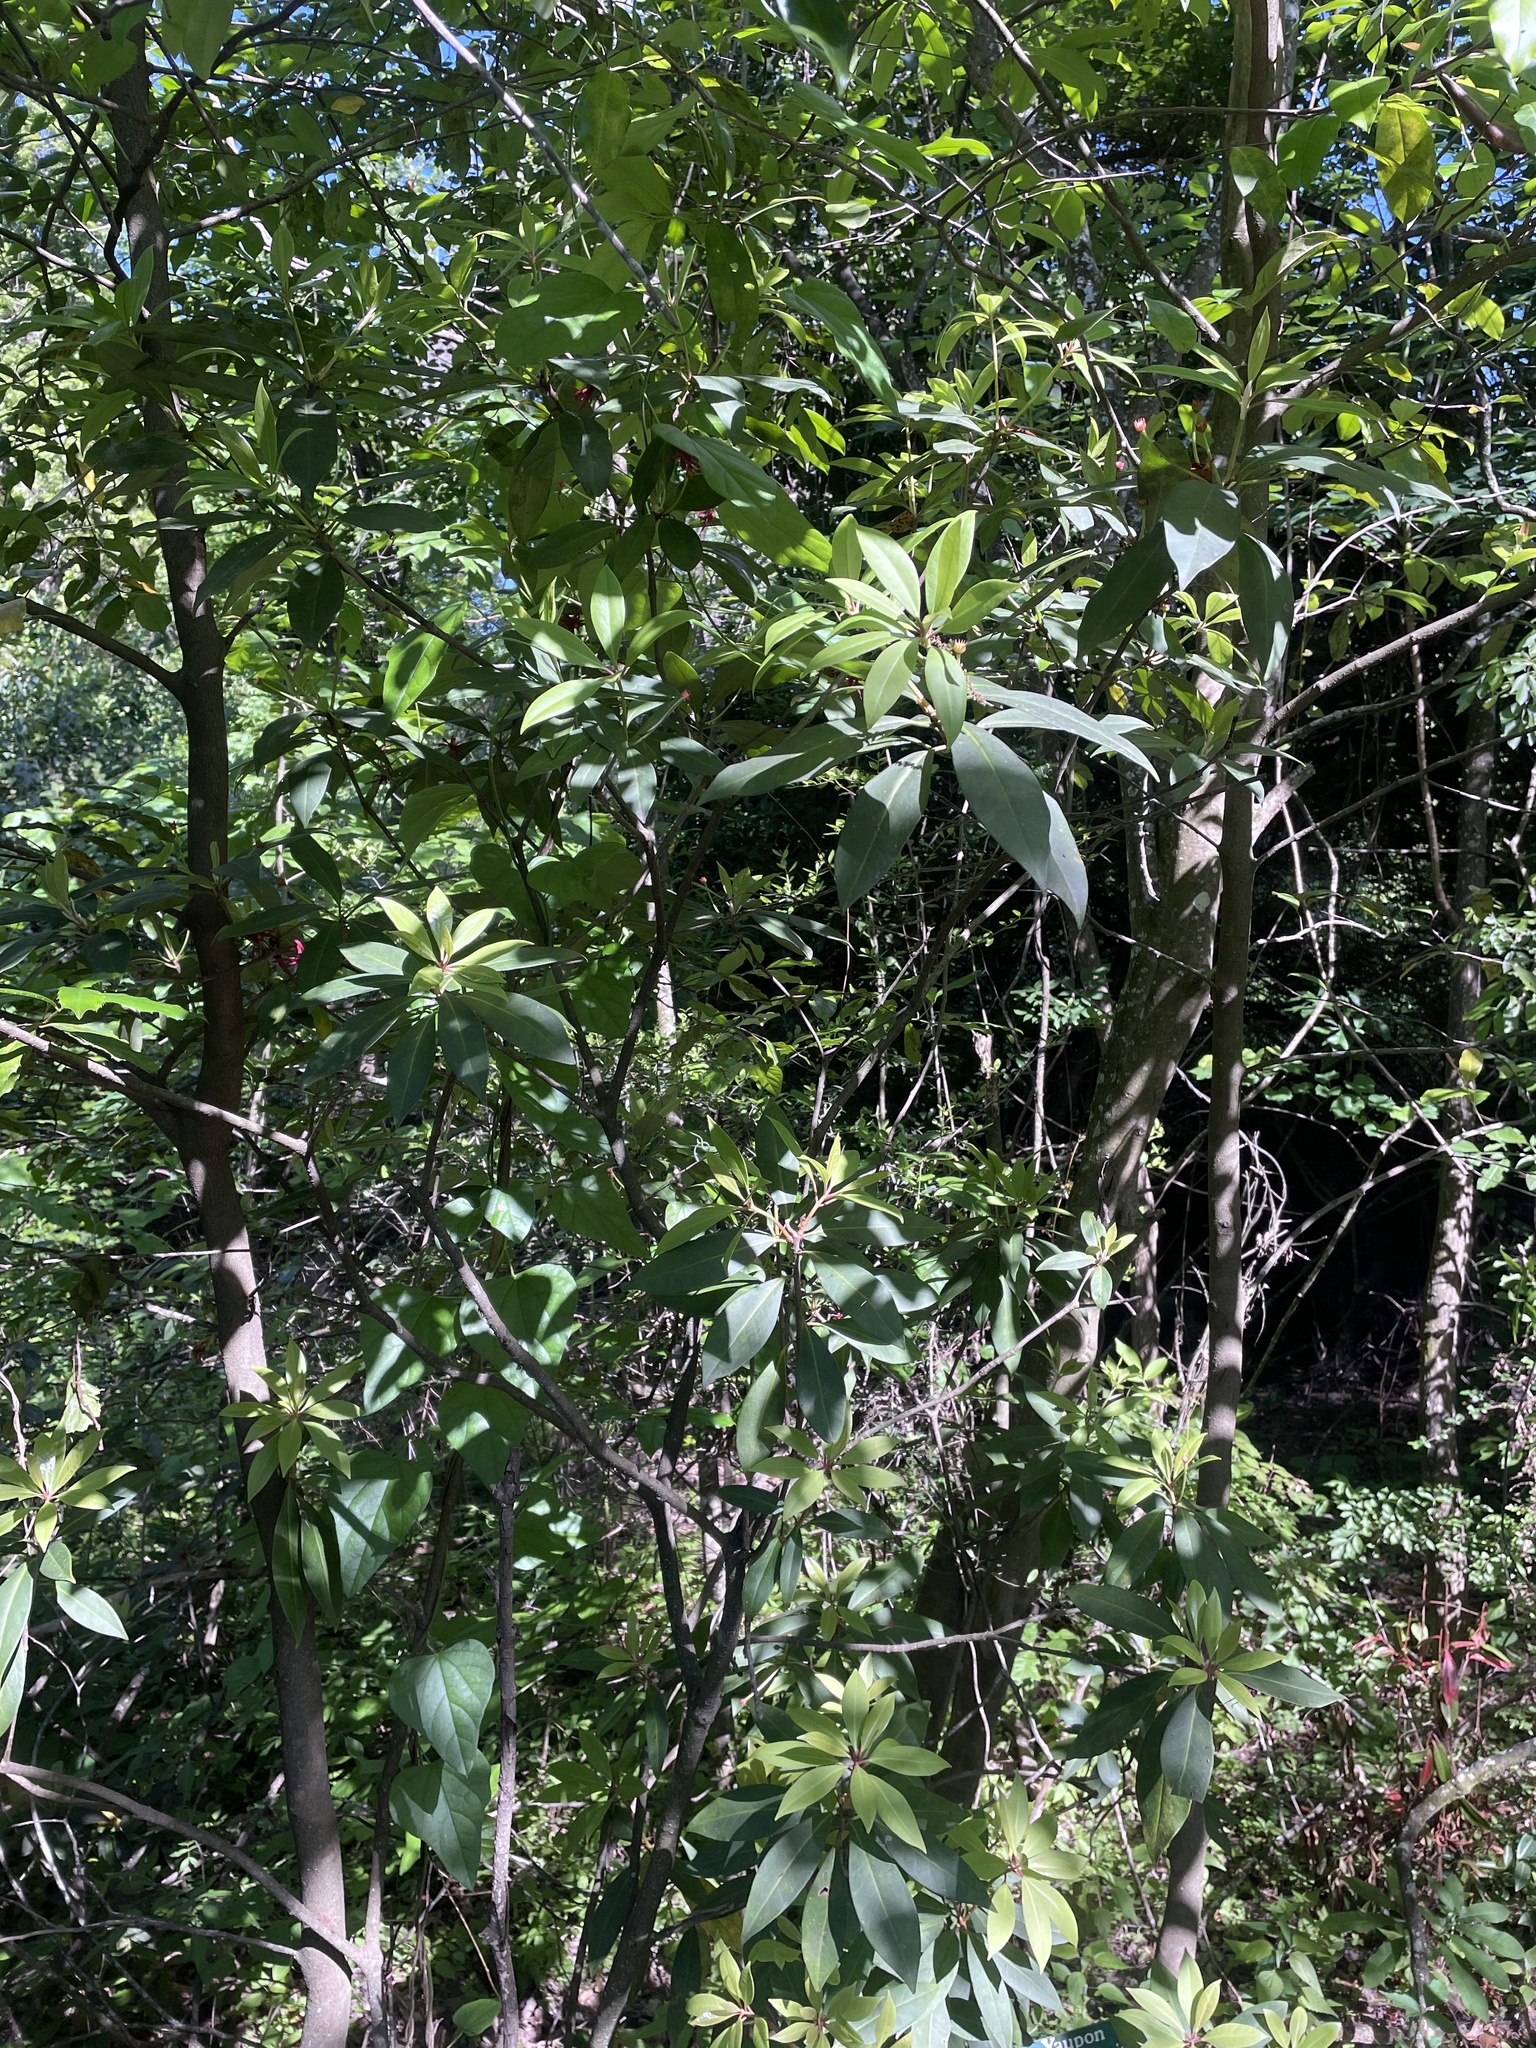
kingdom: Plantae
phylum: Tracheophyta
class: Magnoliopsida
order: Austrobaileyales
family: Schisandraceae
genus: Illicium
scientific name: Illicium floridanum
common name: Florida anisetree
